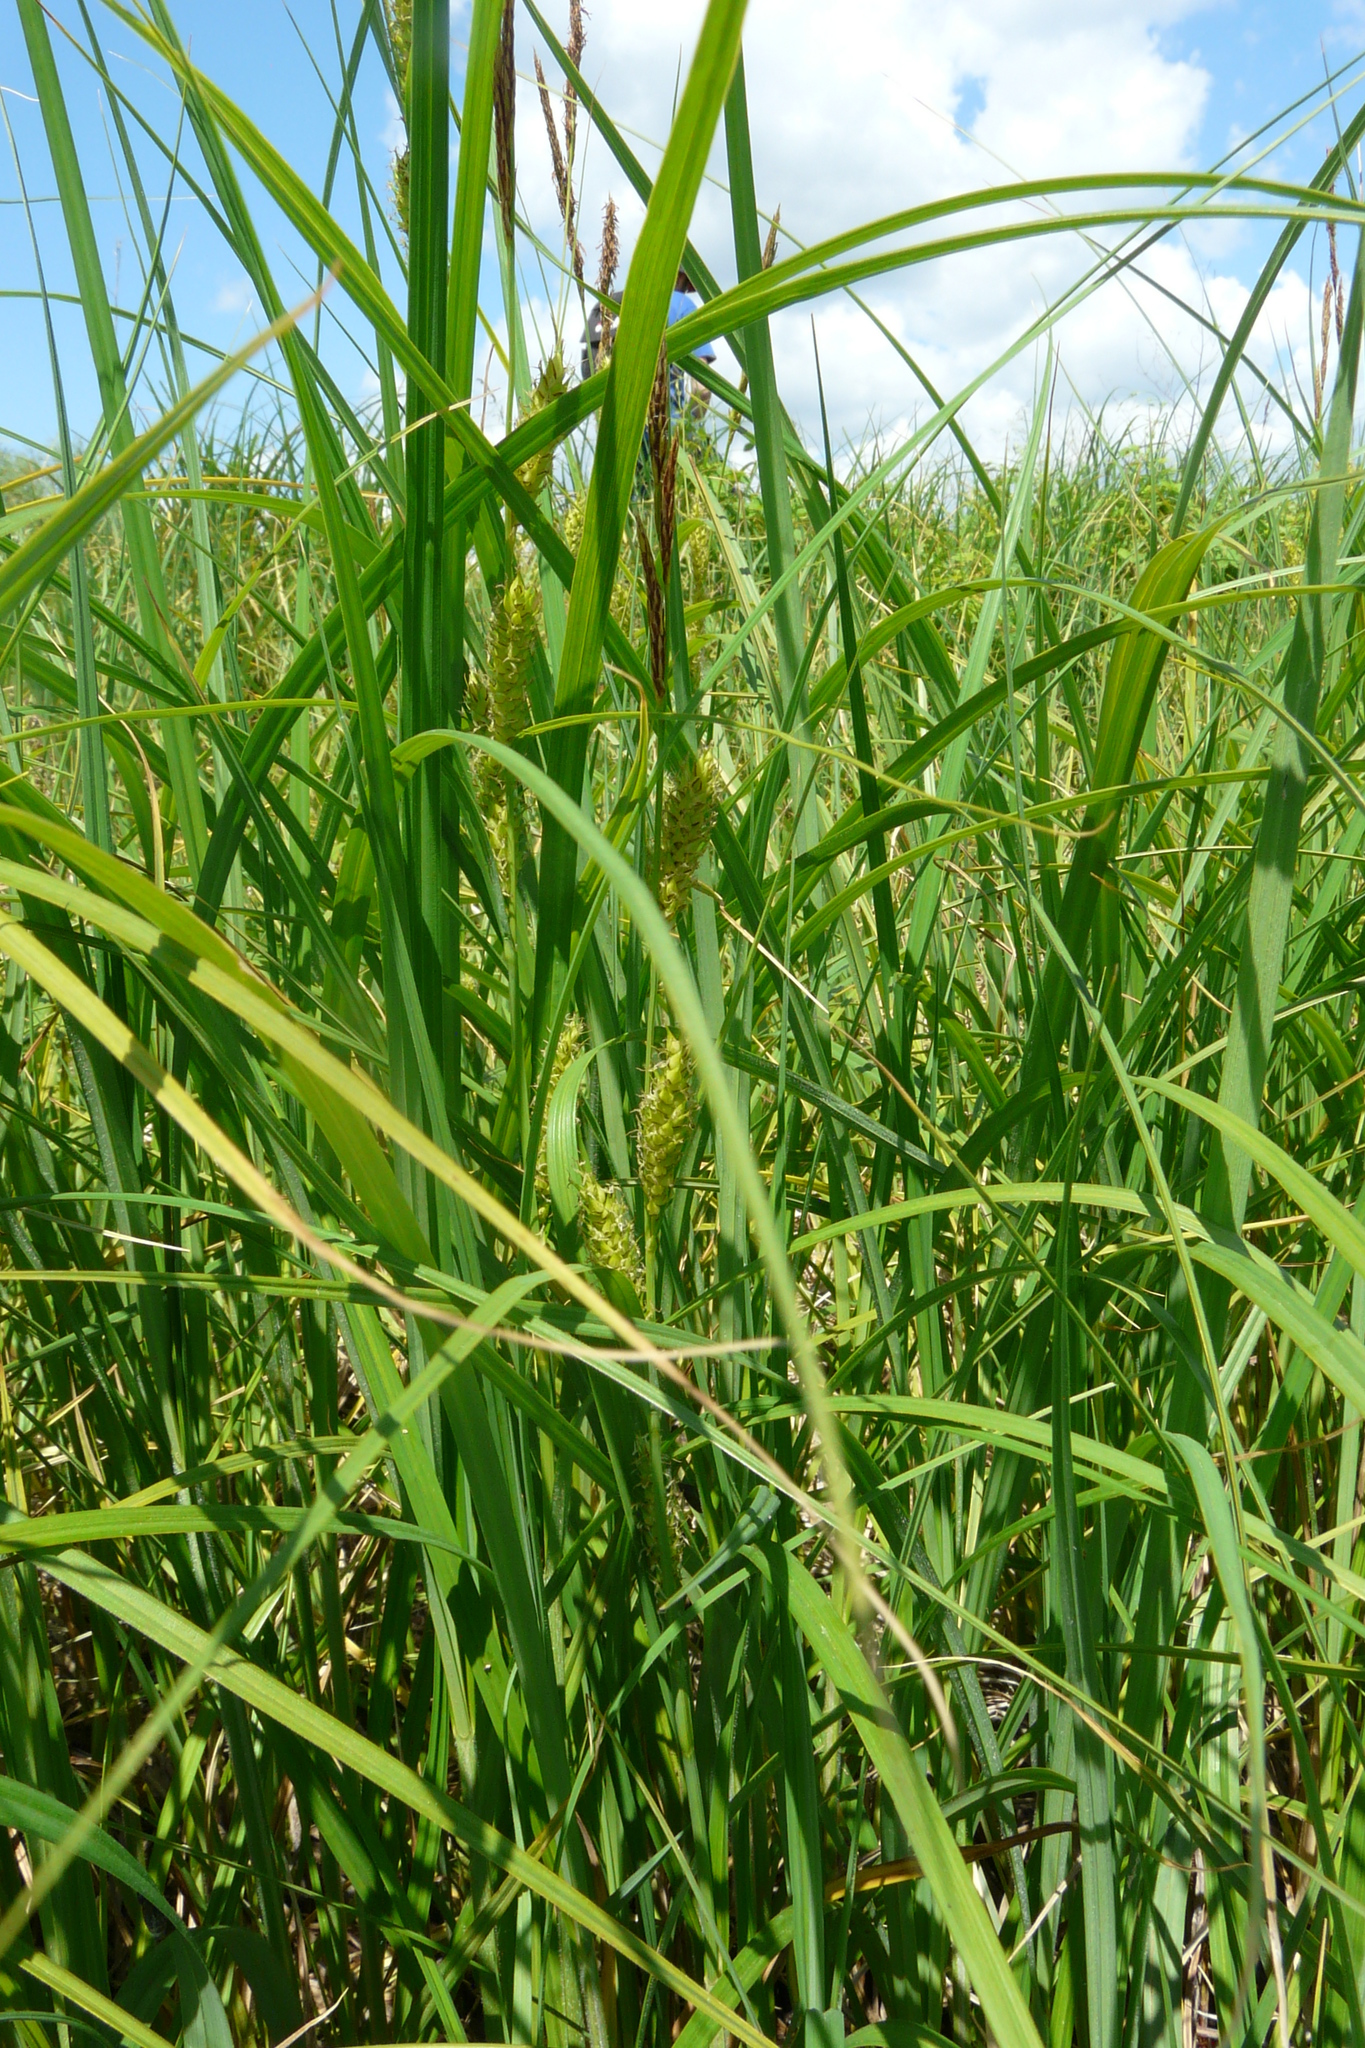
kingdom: Plantae
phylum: Tracheophyta
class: Liliopsida
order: Poales
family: Cyperaceae
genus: Carex
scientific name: Carex atherodes
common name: Wheat sedge
